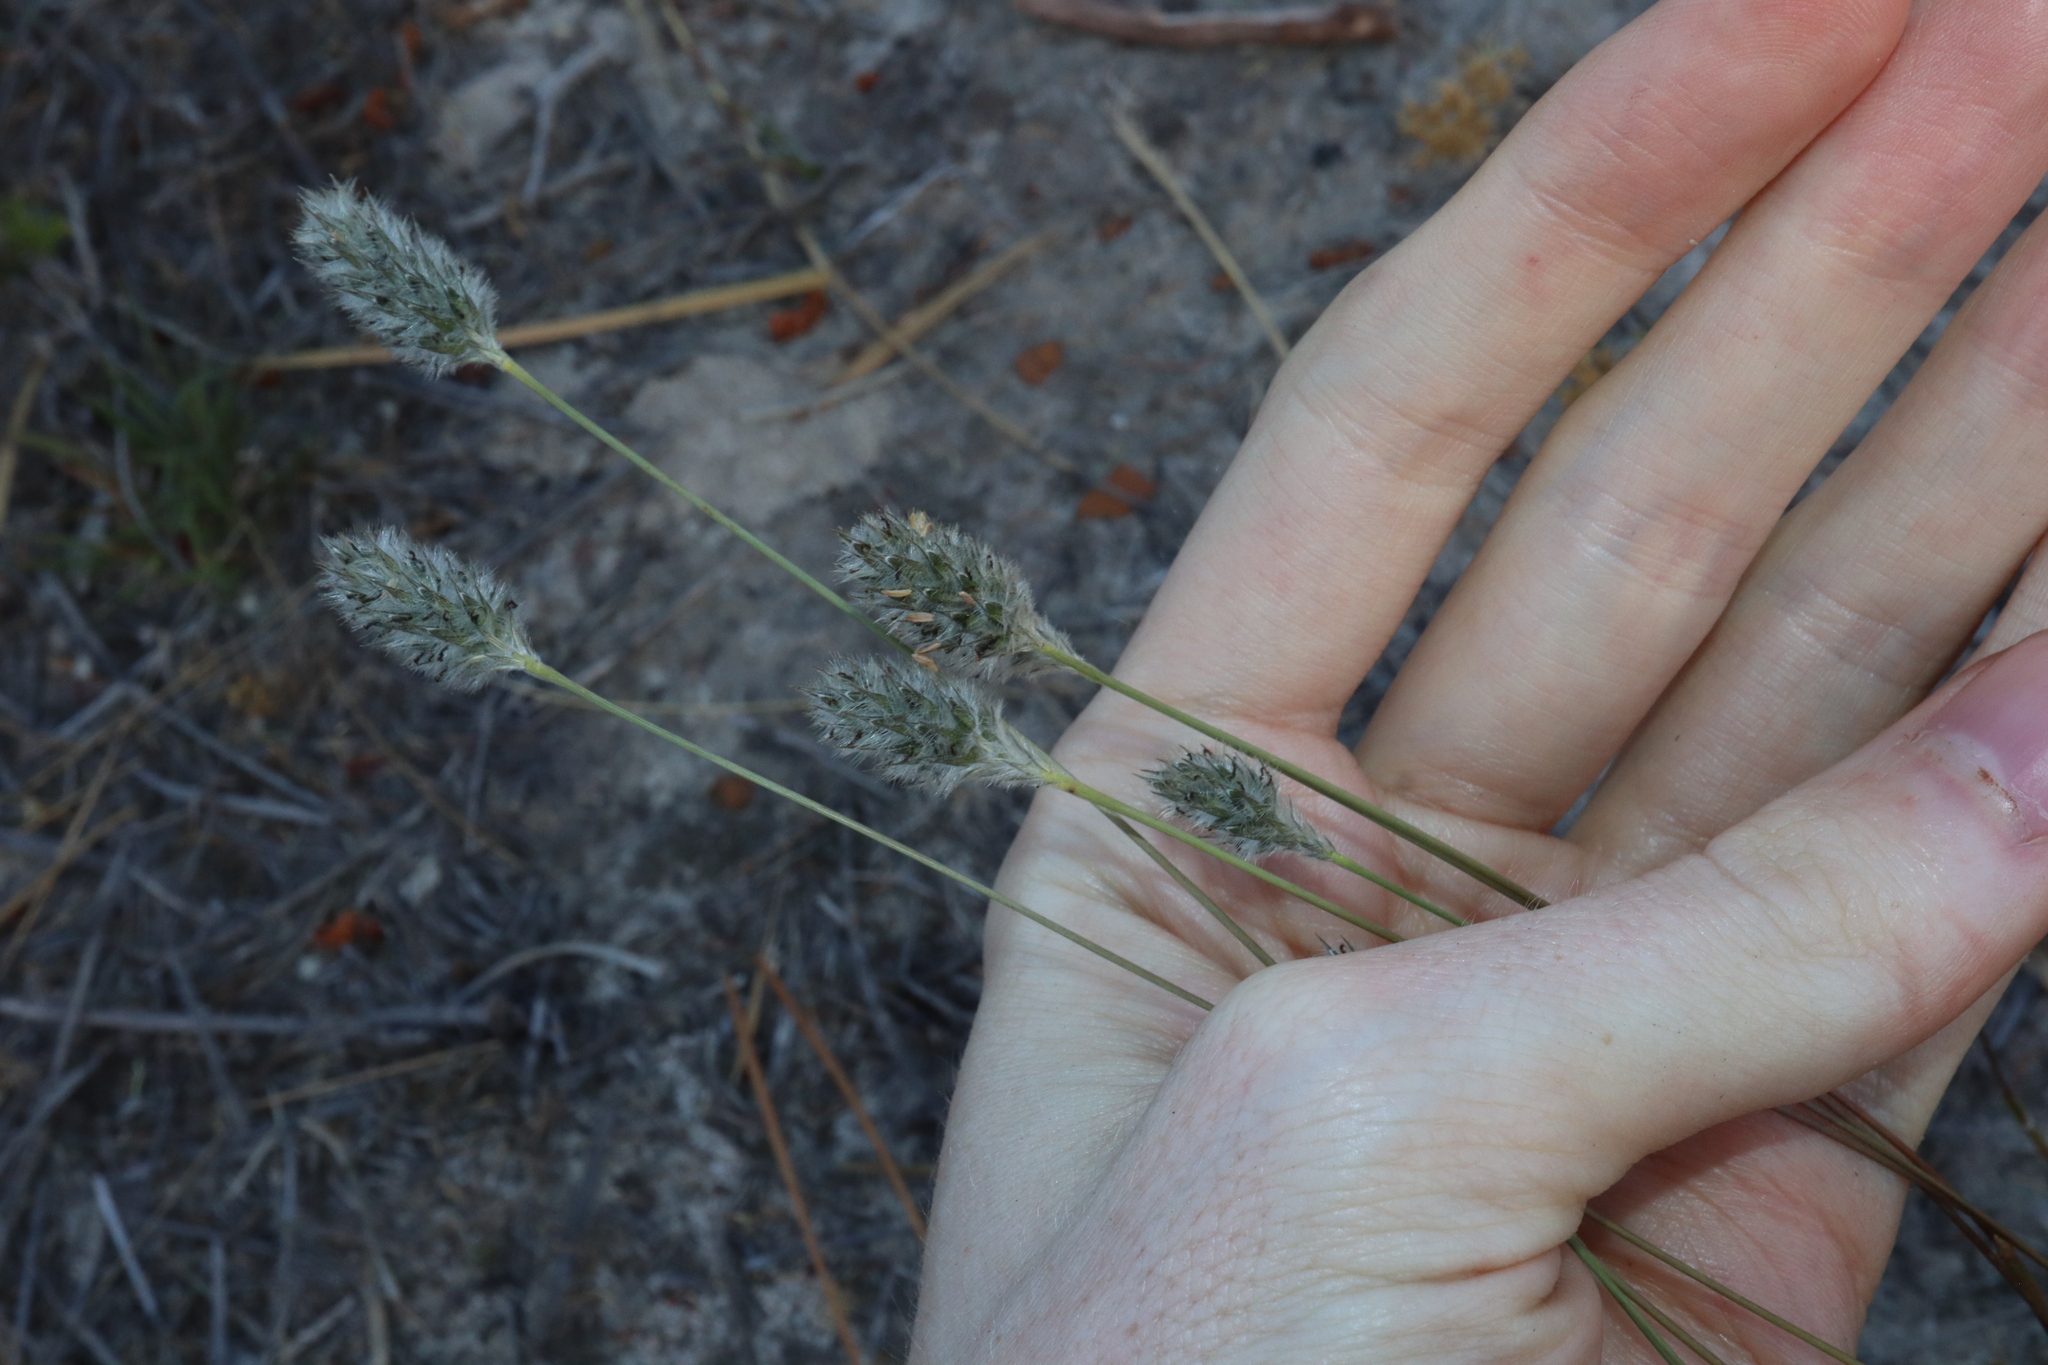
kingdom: Plantae
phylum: Tracheophyta
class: Liliopsida
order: Poales
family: Poaceae
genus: Neurachne
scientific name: Neurachne alopecuroidea
